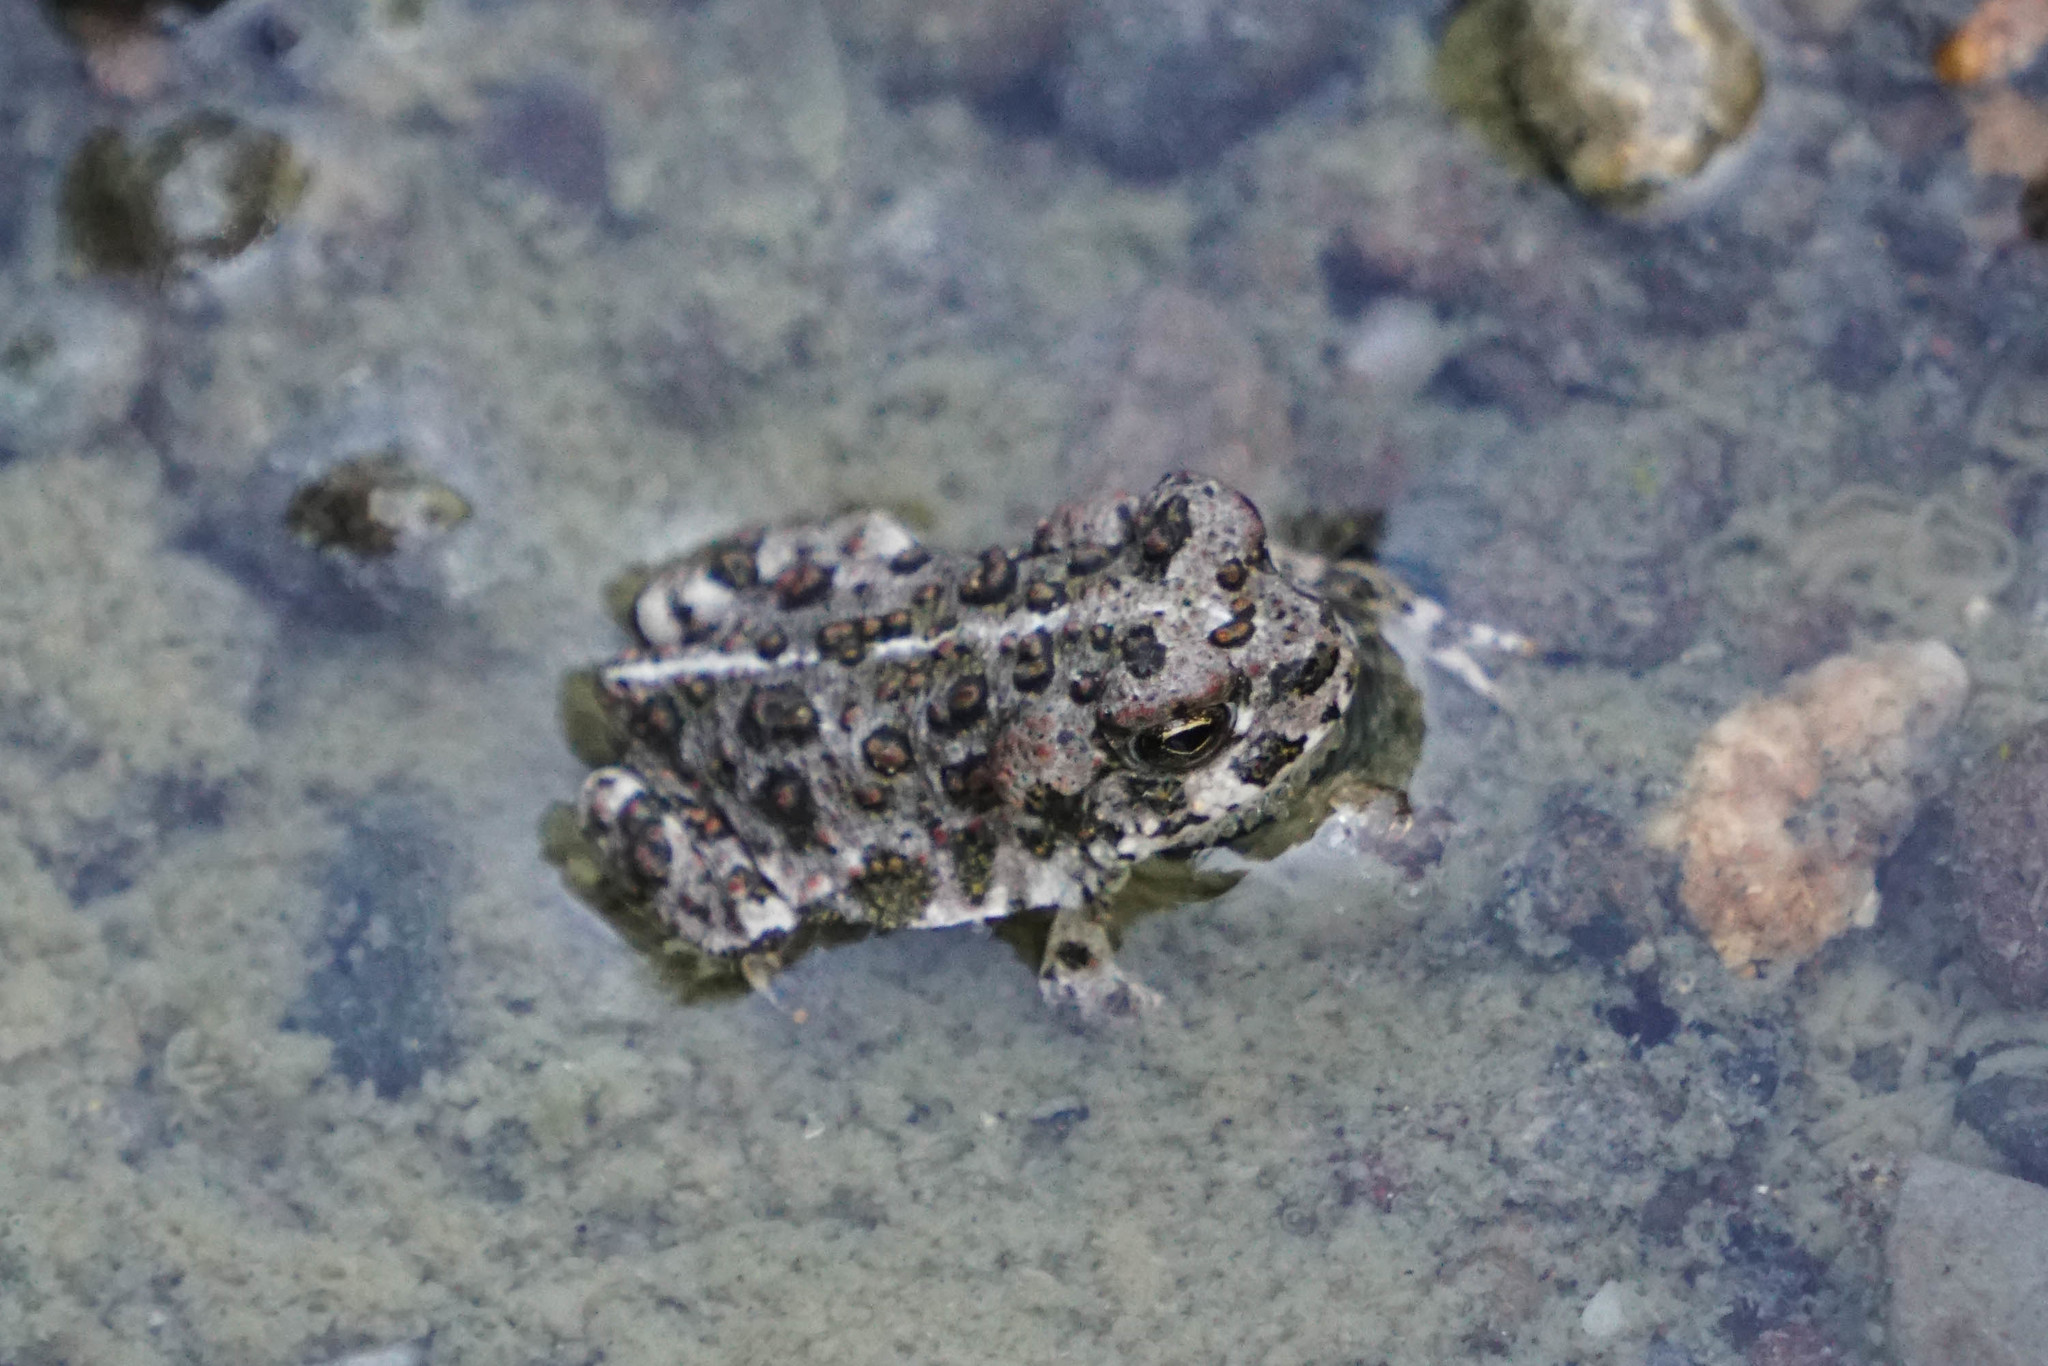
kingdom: Animalia
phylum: Chordata
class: Amphibia
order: Anura
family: Bufonidae
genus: Anaxyrus
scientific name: Anaxyrus boreas
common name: Western toad
